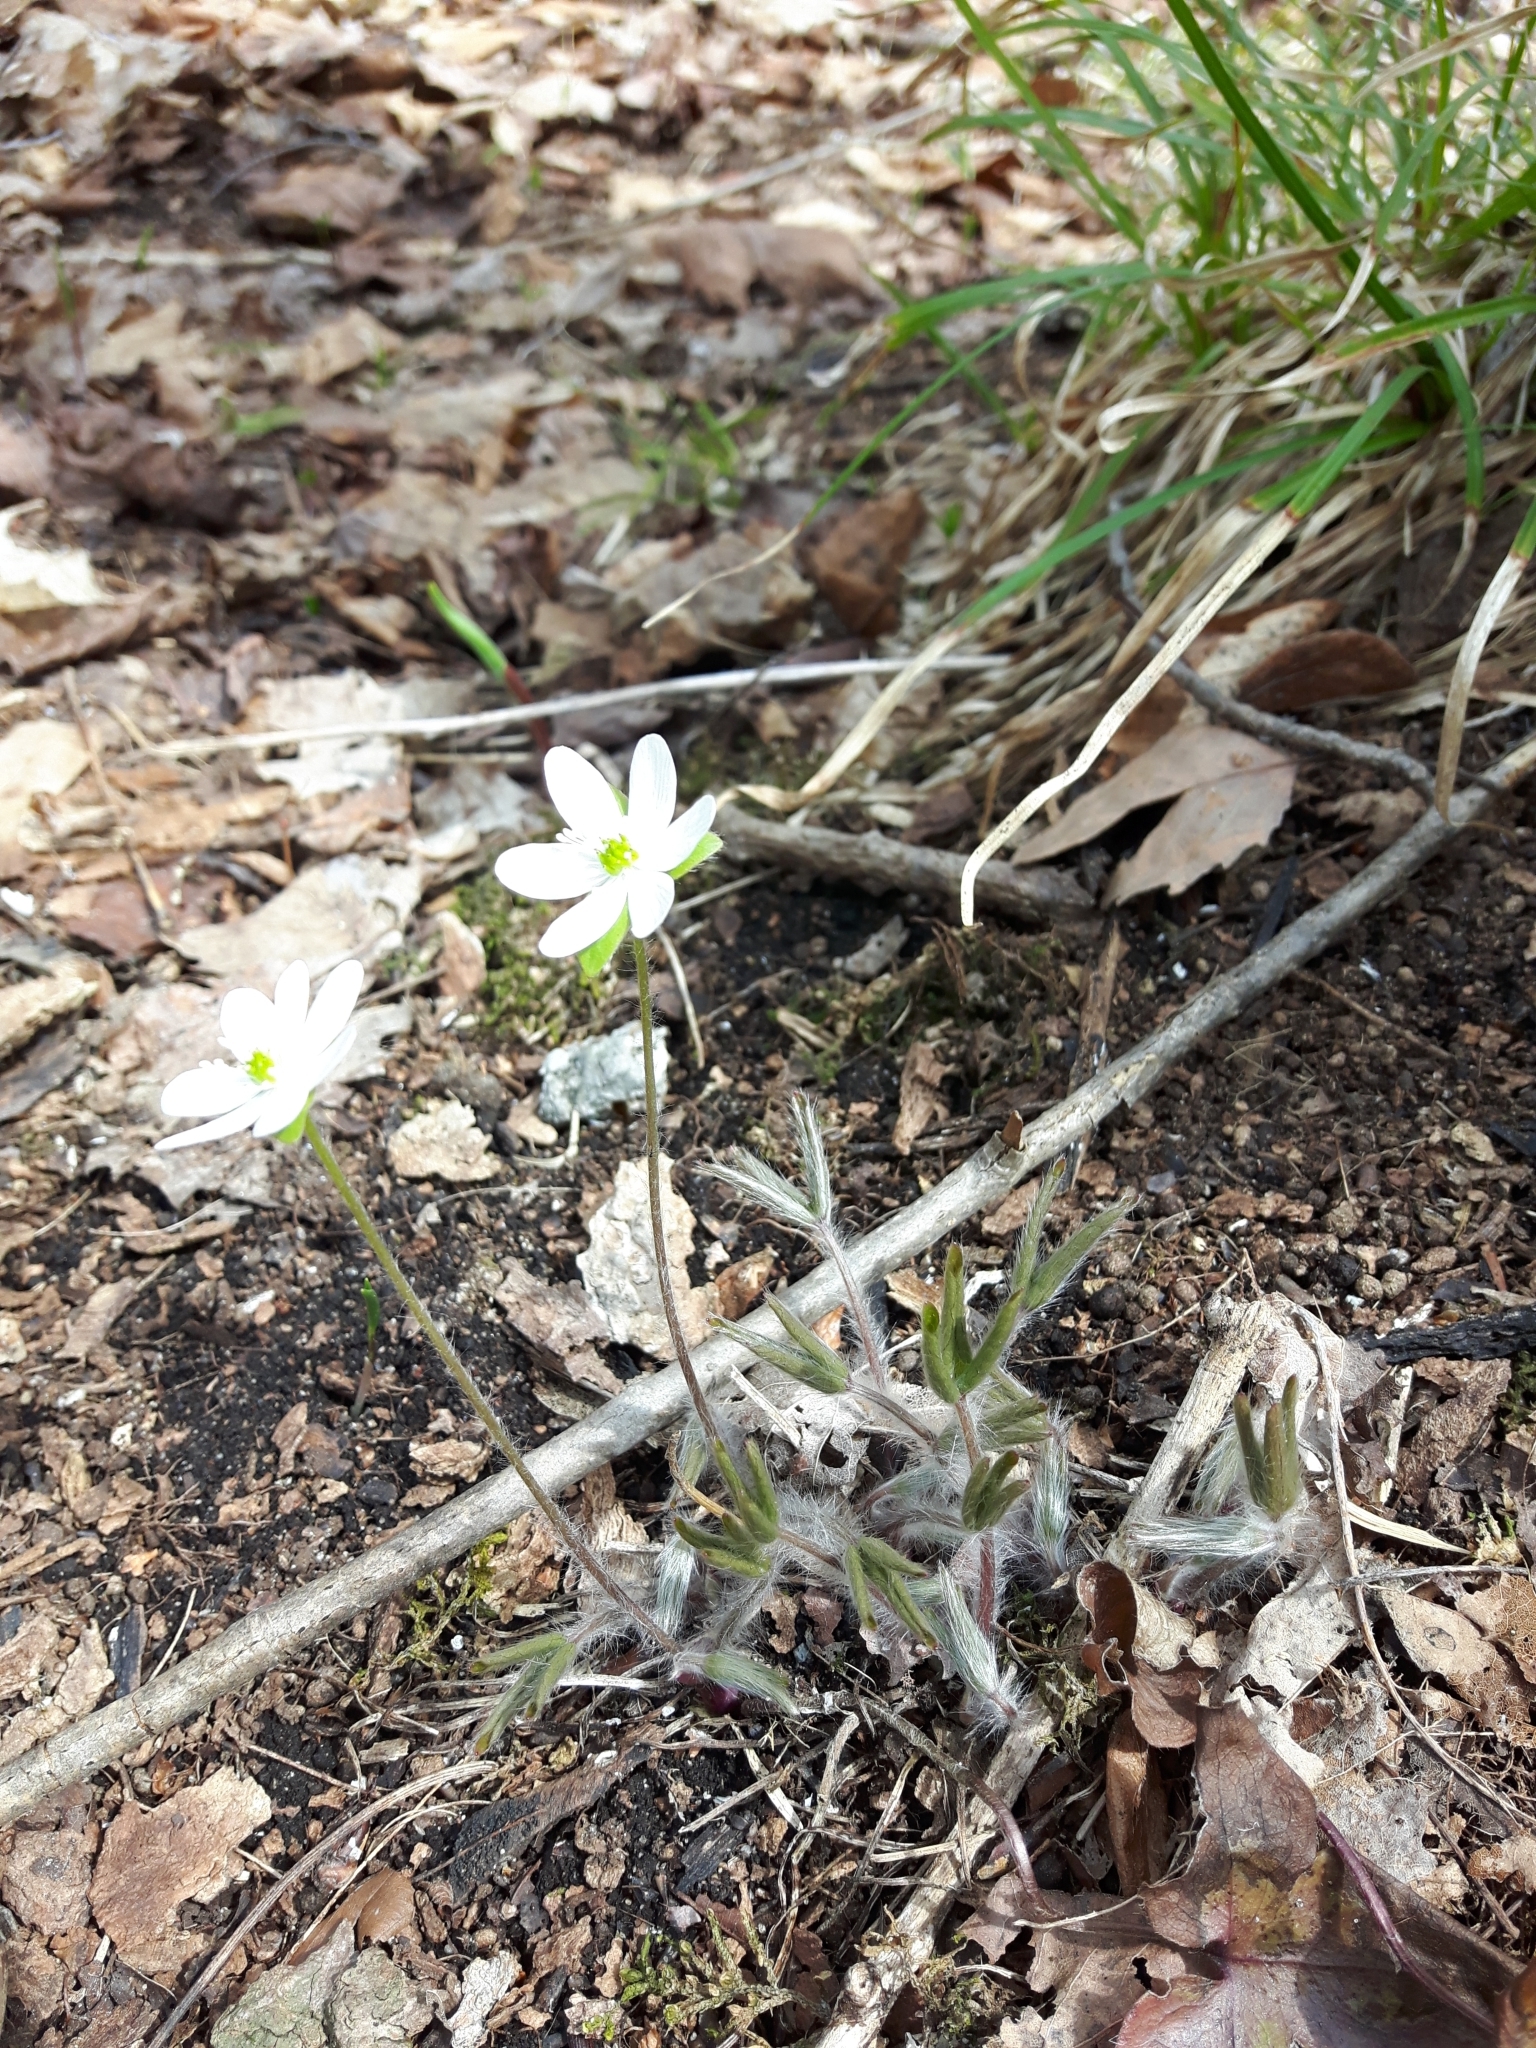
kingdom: Plantae
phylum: Tracheophyta
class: Magnoliopsida
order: Ranunculales
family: Ranunculaceae
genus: Hepatica
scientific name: Hepatica acutiloba
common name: Sharp-lobed hepatica
